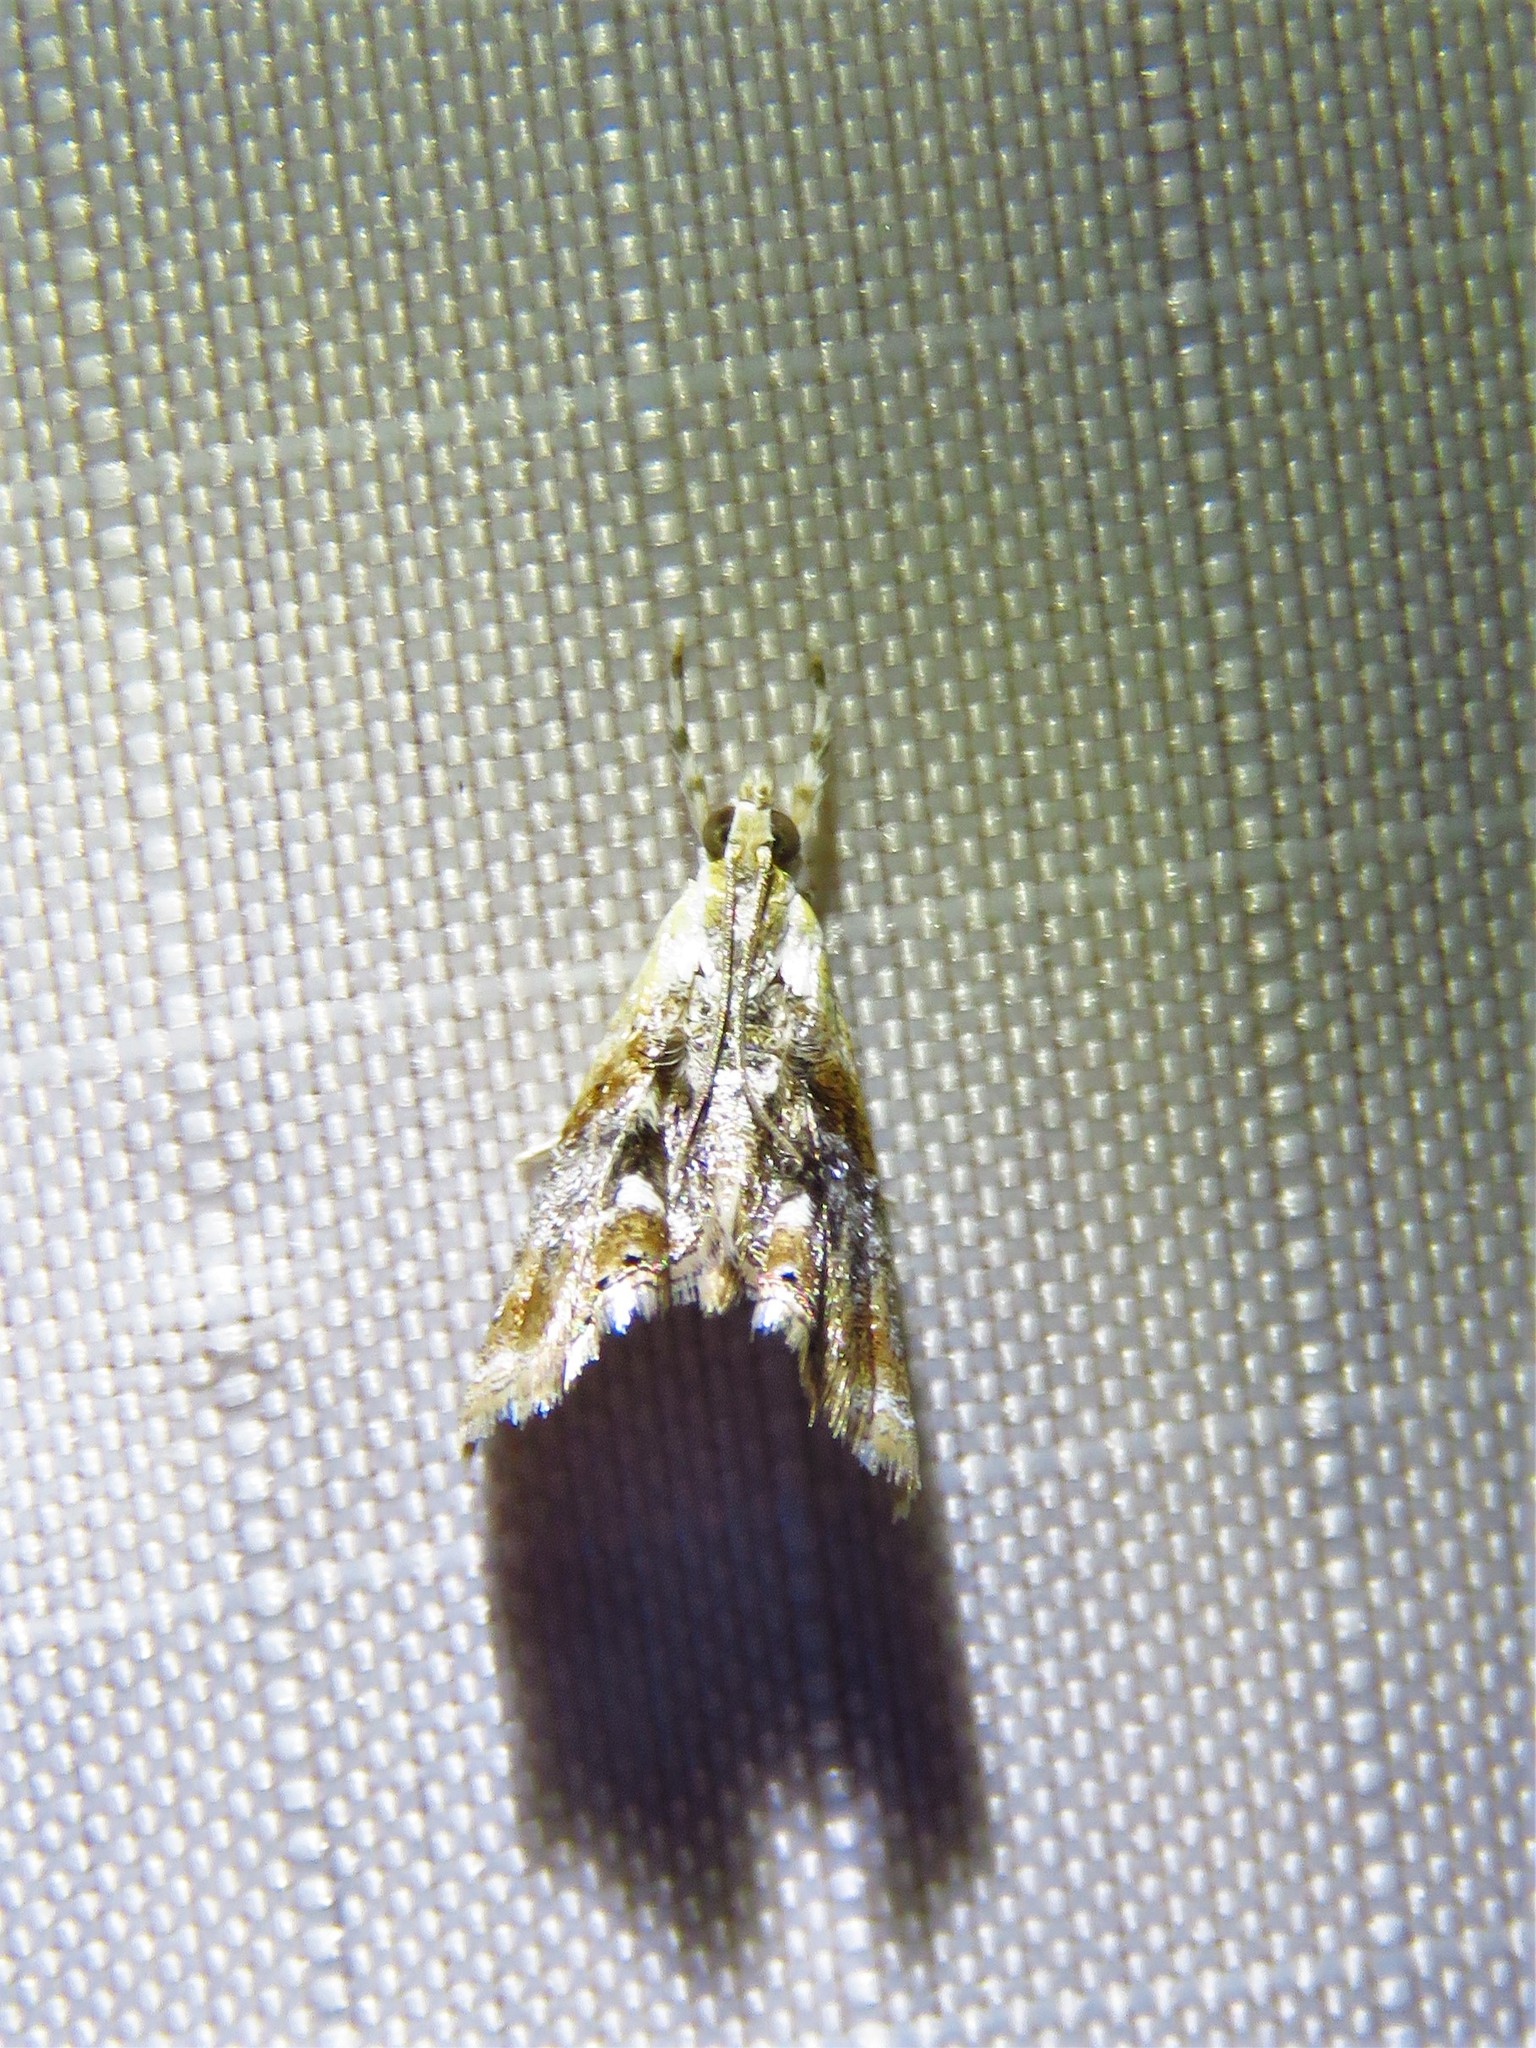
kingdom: Animalia
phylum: Arthropoda
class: Insecta
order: Lepidoptera
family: Crambidae
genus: Dicymolomia
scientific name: Dicymolomia julianalis
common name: Julia's dicymolomia moth
